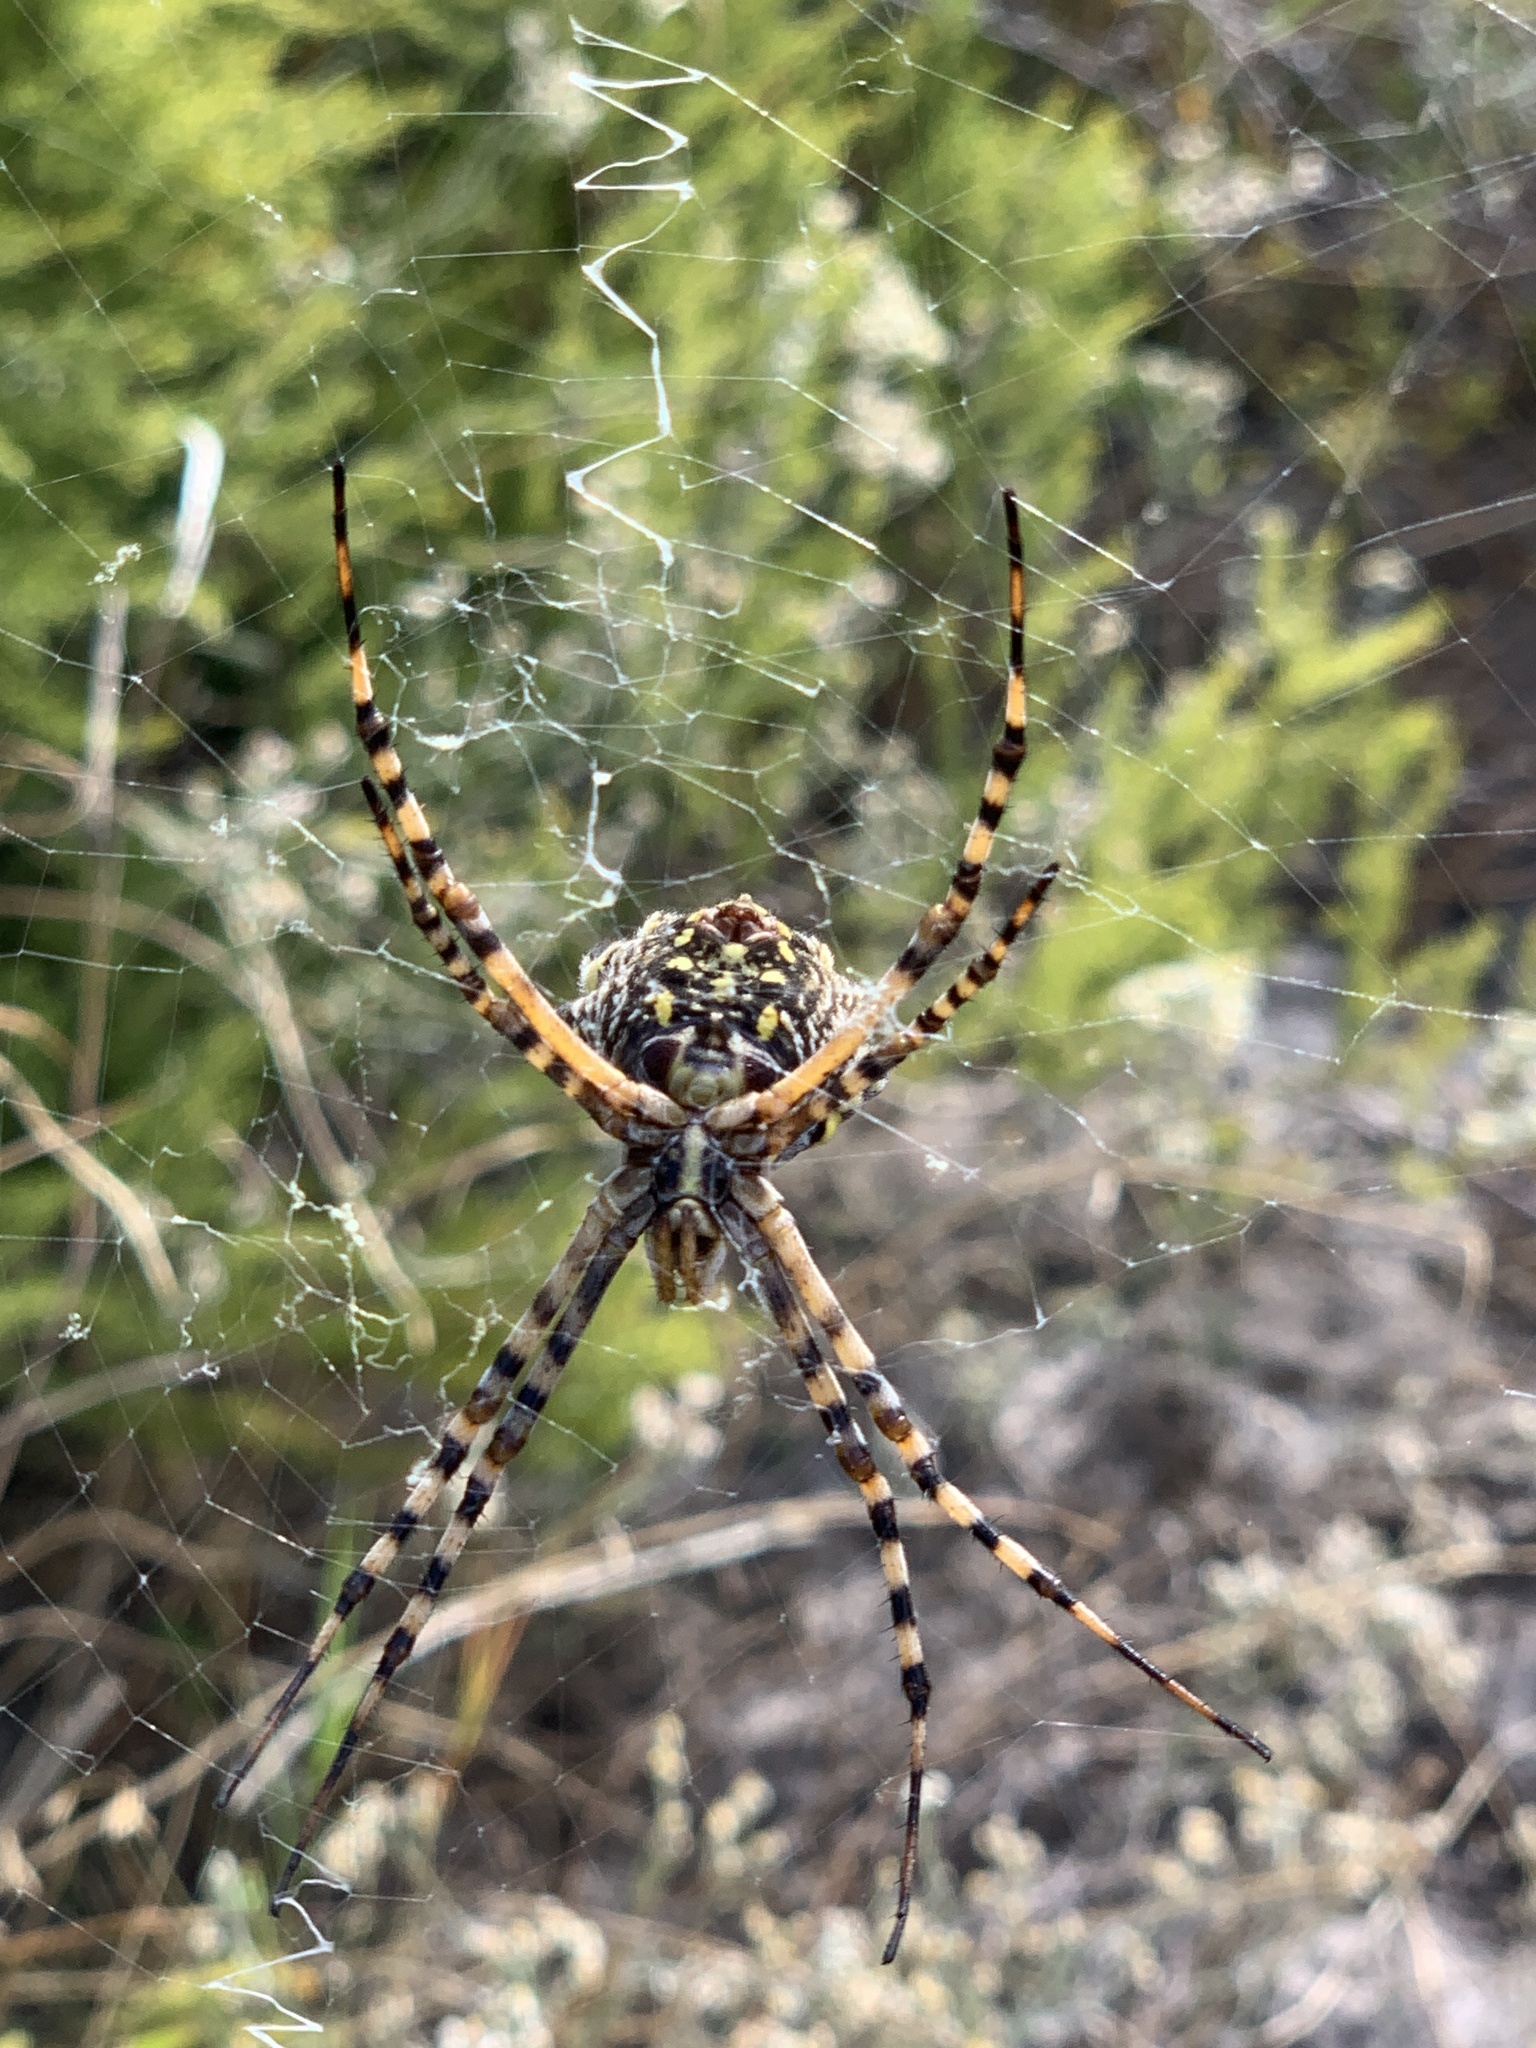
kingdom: Animalia
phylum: Arthropoda
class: Arachnida
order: Araneae
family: Araneidae
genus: Argiope
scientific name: Argiope australis
